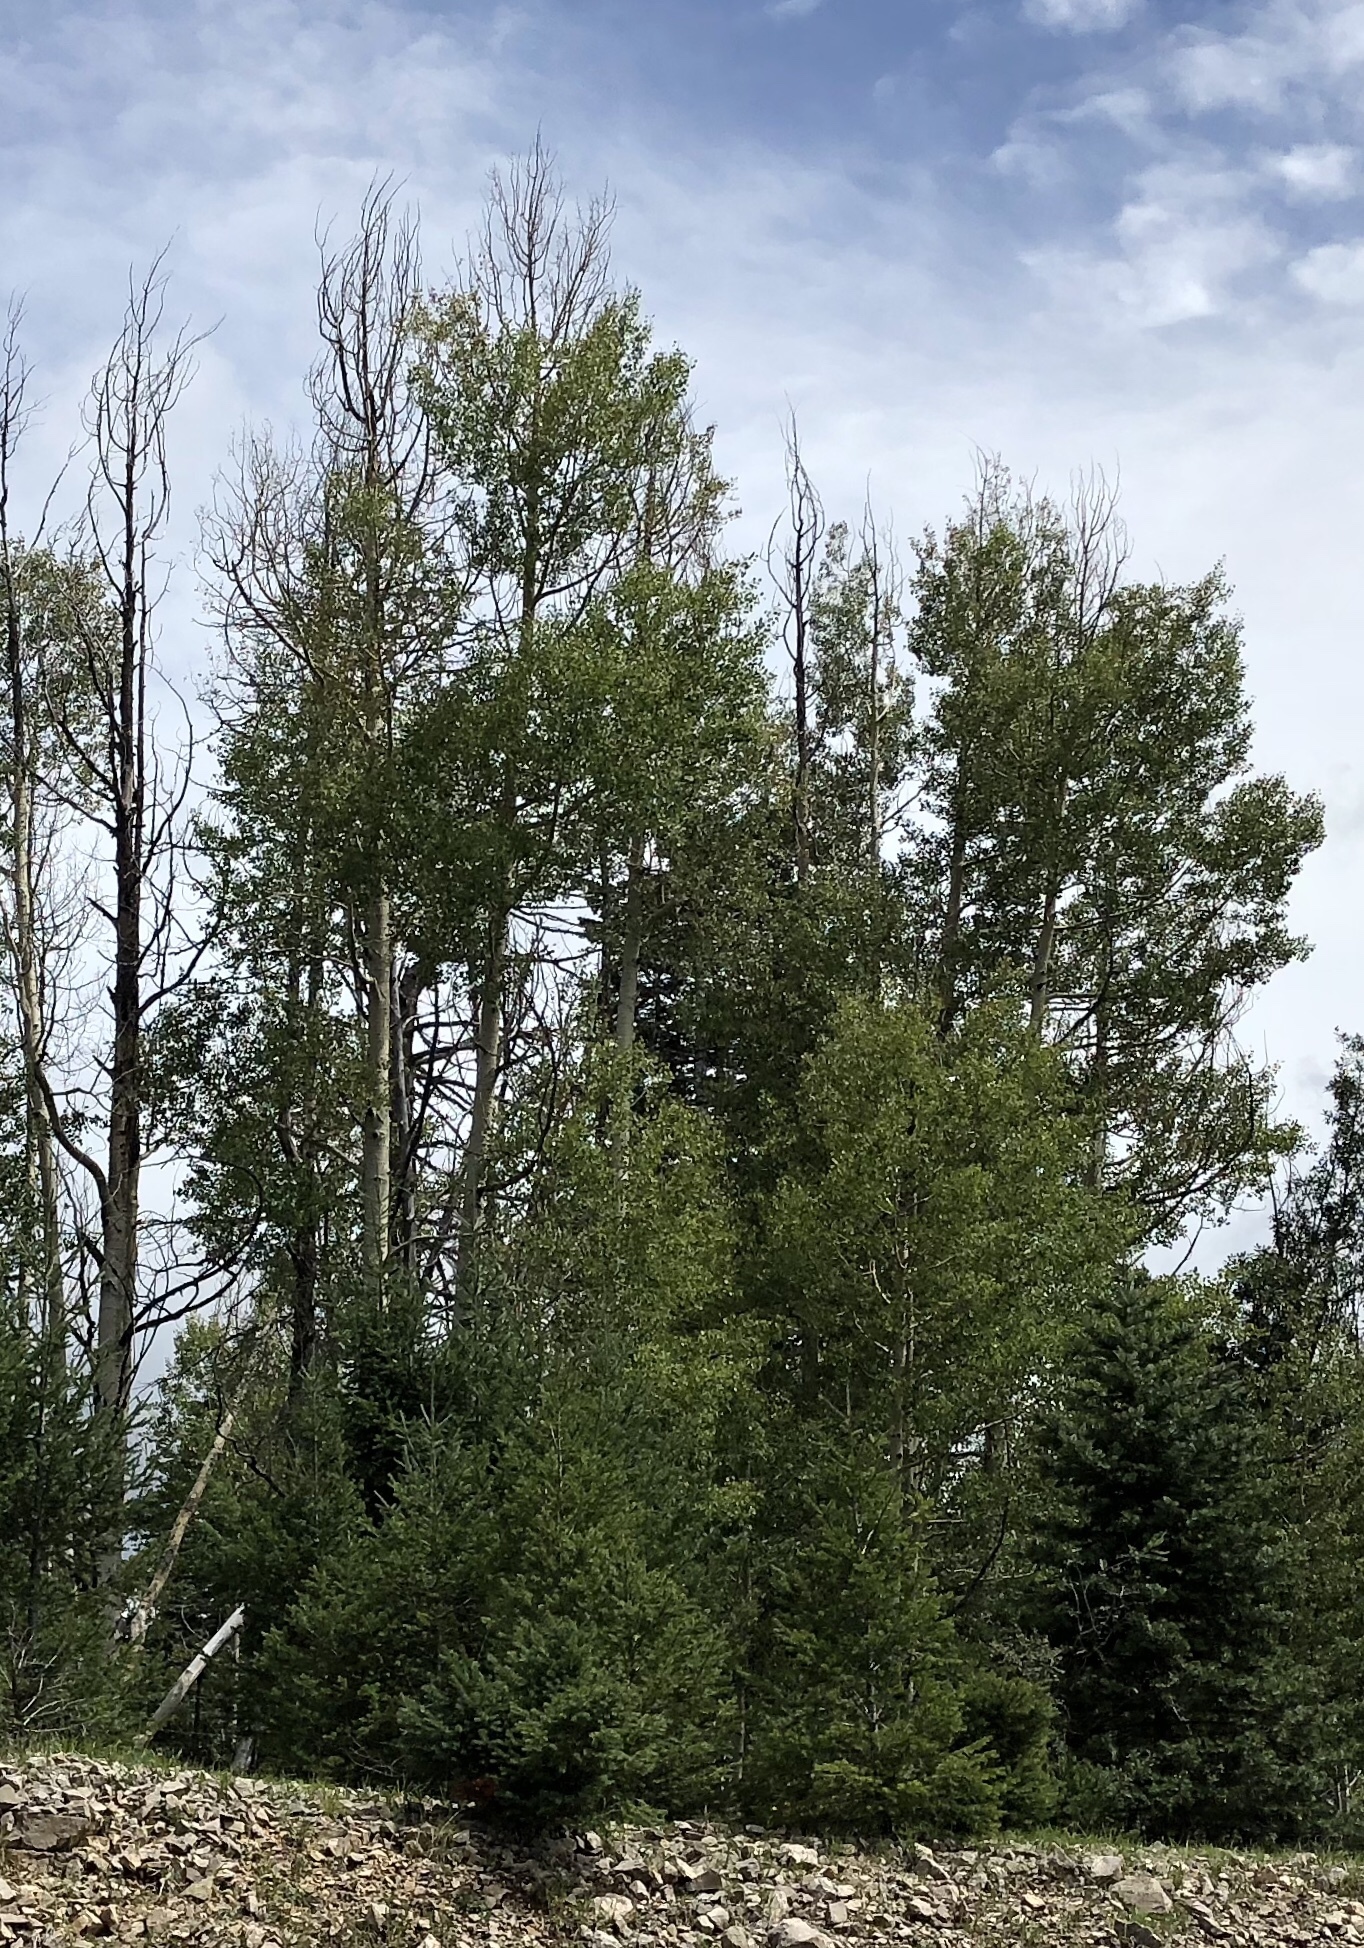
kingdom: Plantae
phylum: Tracheophyta
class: Magnoliopsida
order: Malpighiales
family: Salicaceae
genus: Populus
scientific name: Populus tremuloides
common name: Quaking aspen
